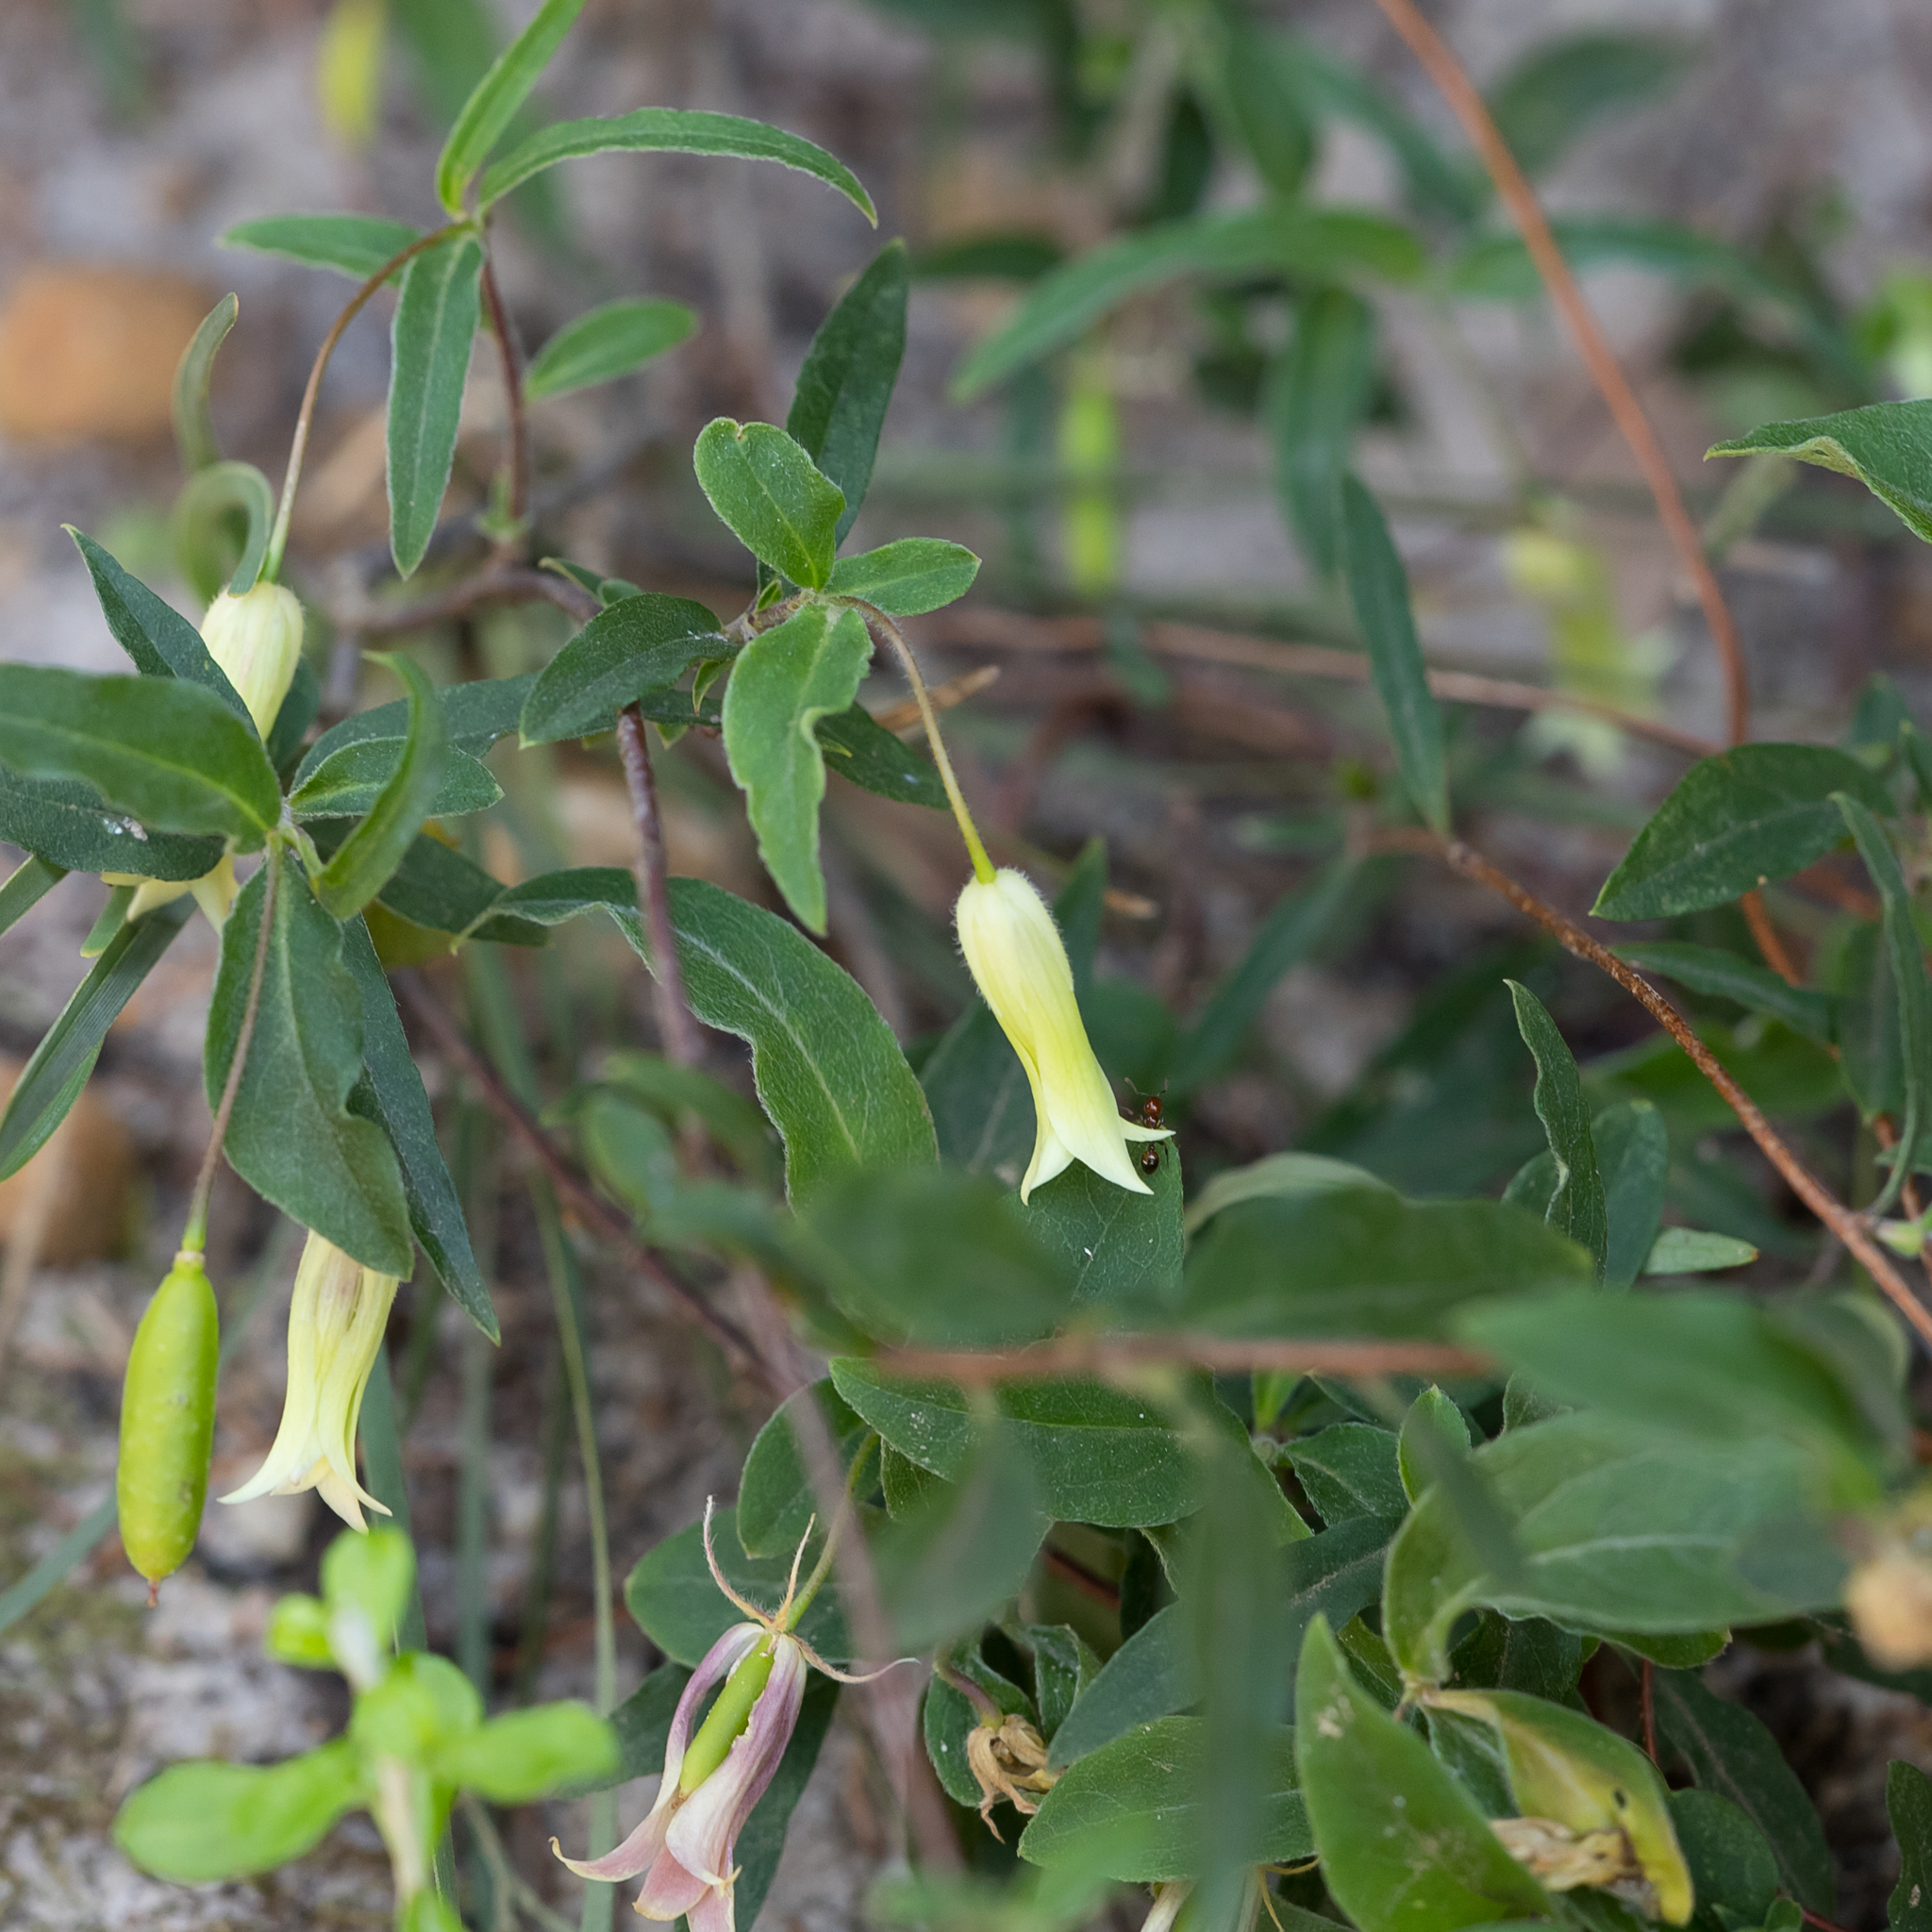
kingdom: Plantae
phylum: Tracheophyta
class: Magnoliopsida
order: Apiales
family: Pittosporaceae
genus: Billardiera
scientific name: Billardiera mutabilis
